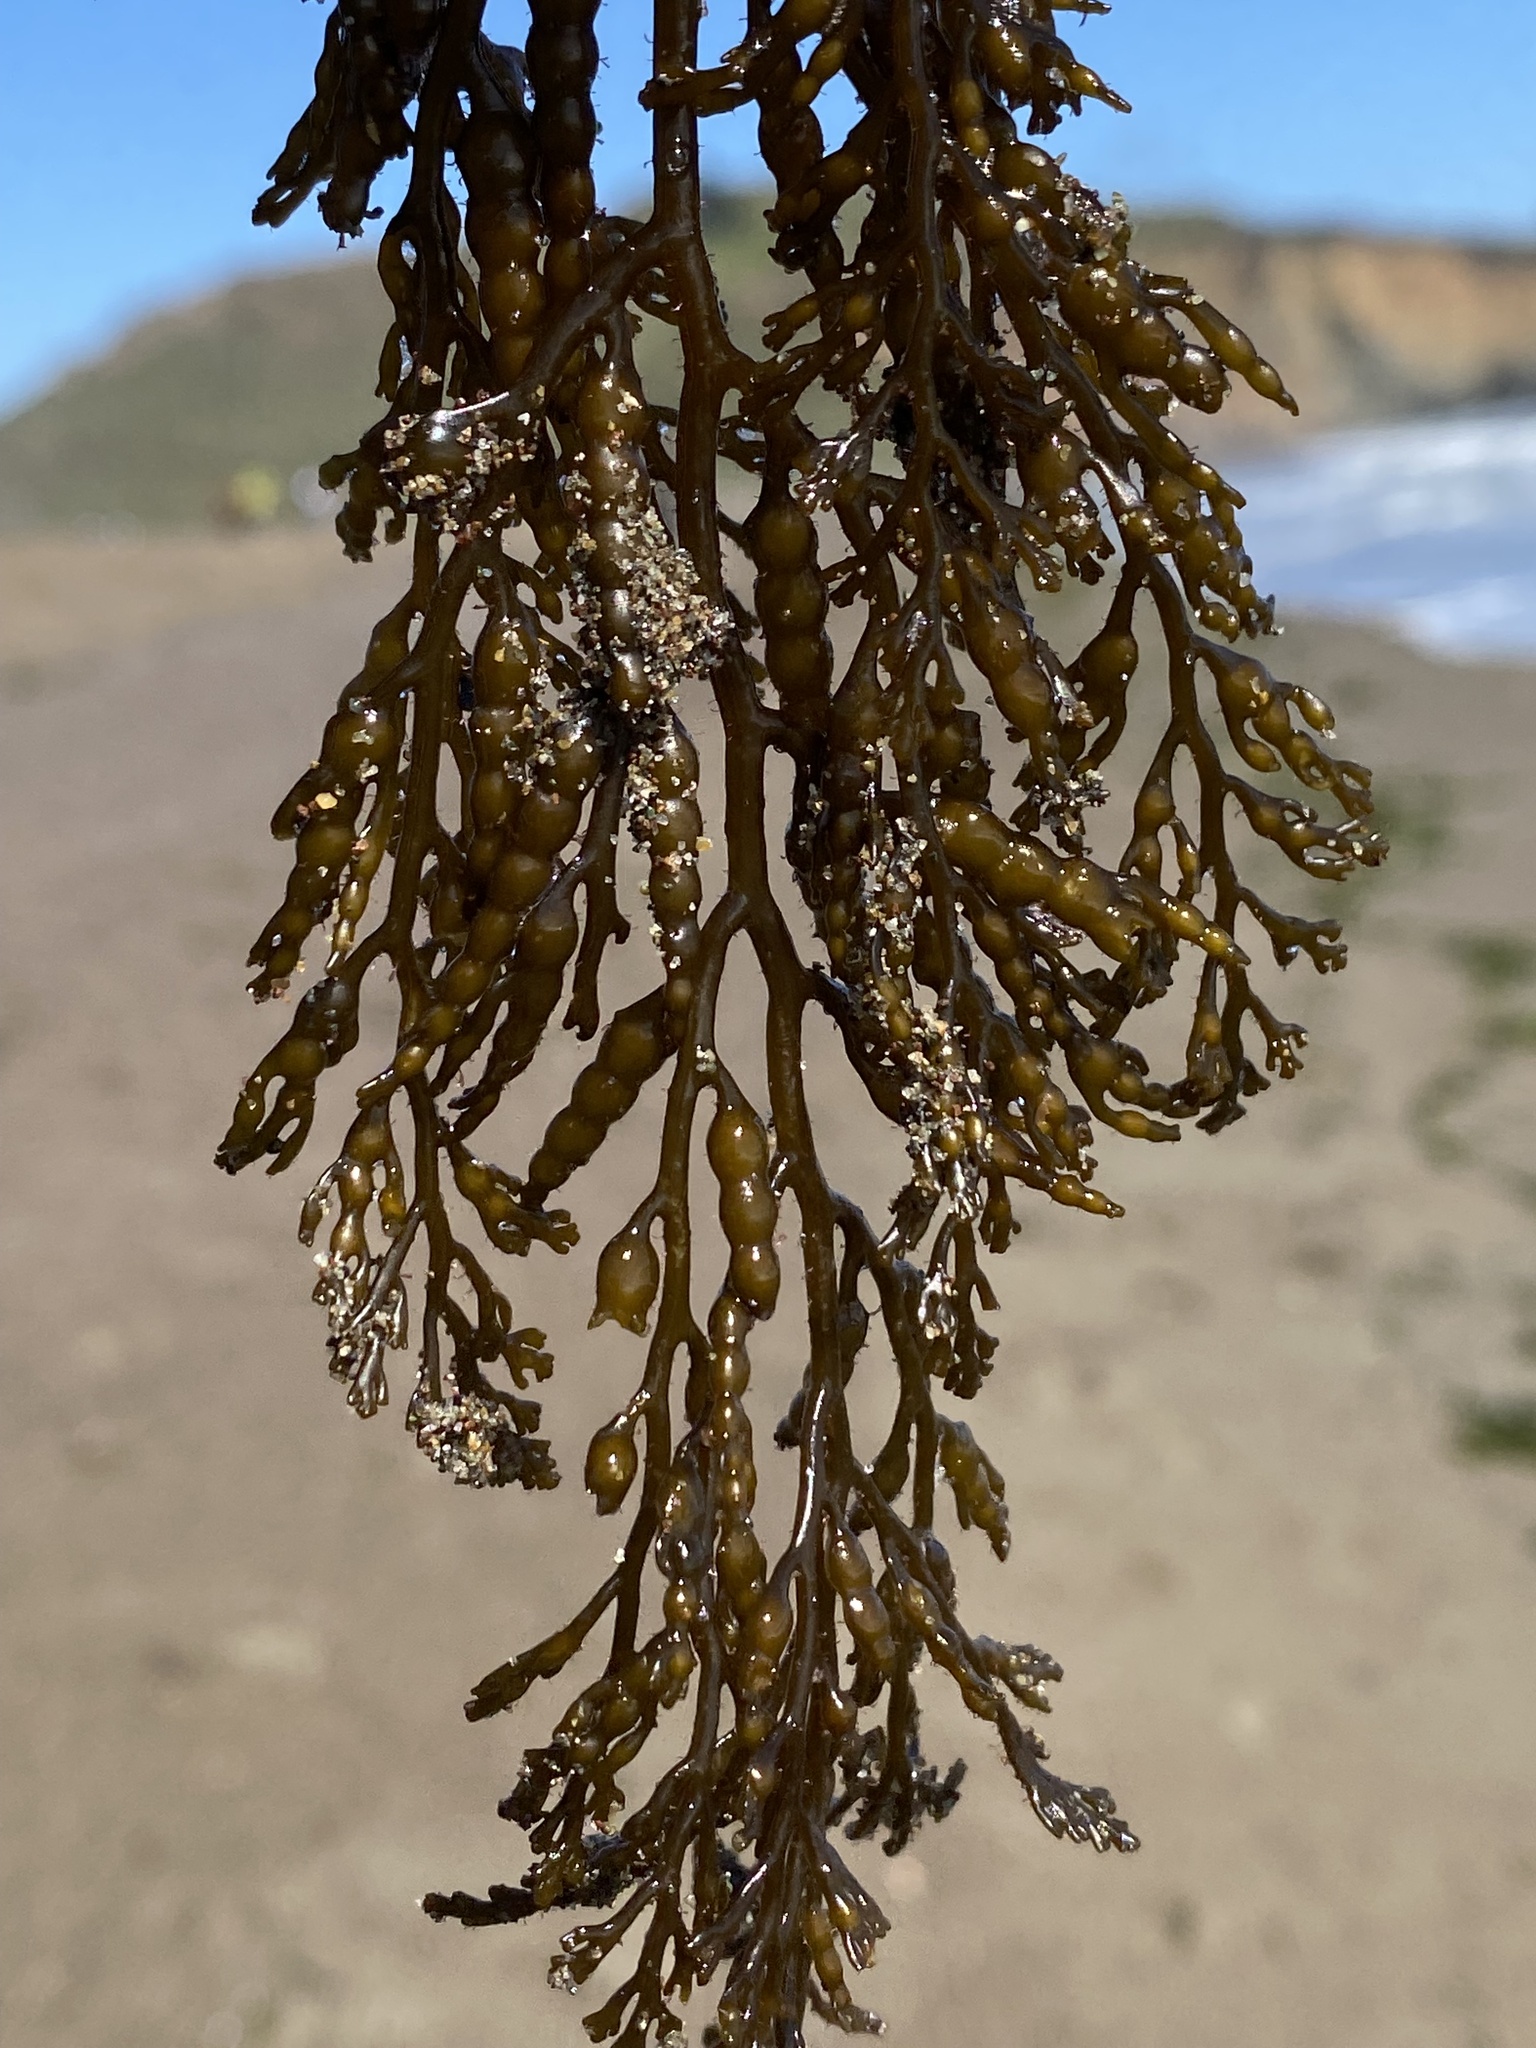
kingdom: Chromista
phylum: Ochrophyta
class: Phaeophyceae
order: Fucales
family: Sargassaceae
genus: Stephanocystis
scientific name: Stephanocystis
